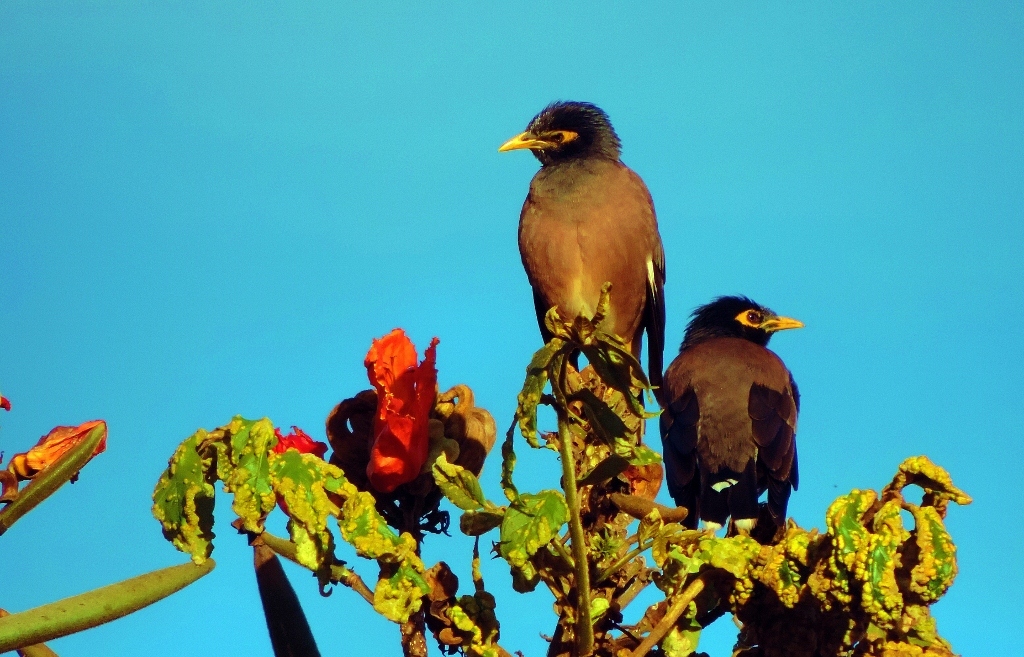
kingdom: Animalia
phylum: Chordata
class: Aves
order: Passeriformes
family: Sturnidae
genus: Acridotheres
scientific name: Acridotheres tristis
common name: Common myna
